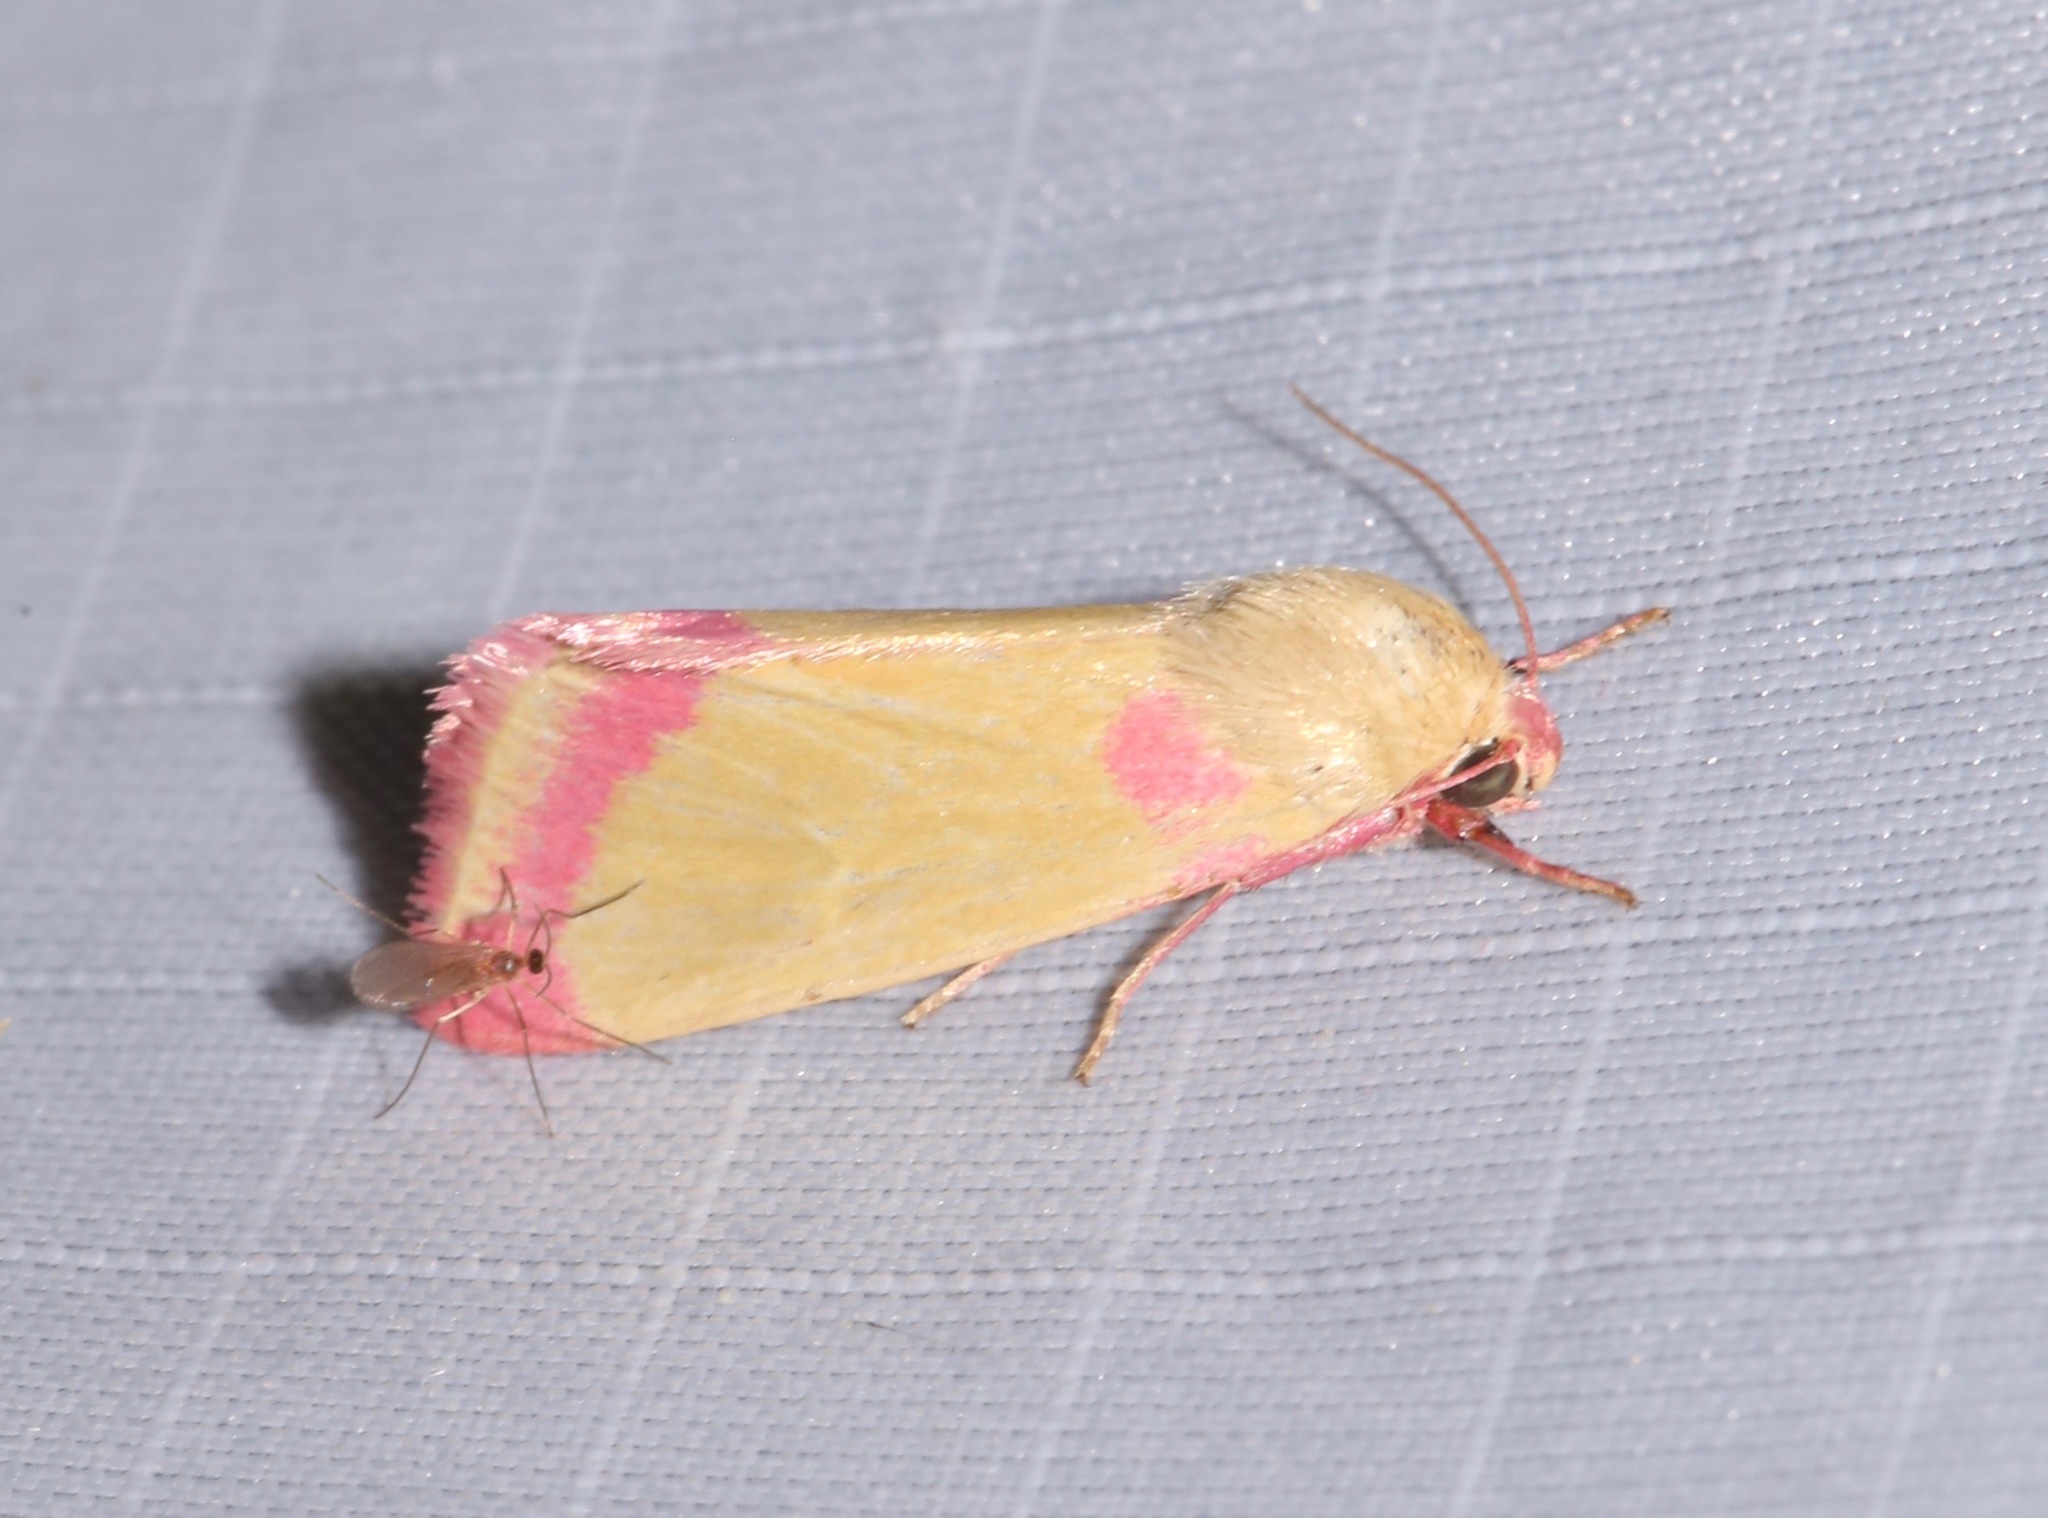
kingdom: Animalia
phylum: Arthropoda
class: Insecta
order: Lepidoptera
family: Noctuidae
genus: Heliocheilus
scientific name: Heliocheilus toralis
